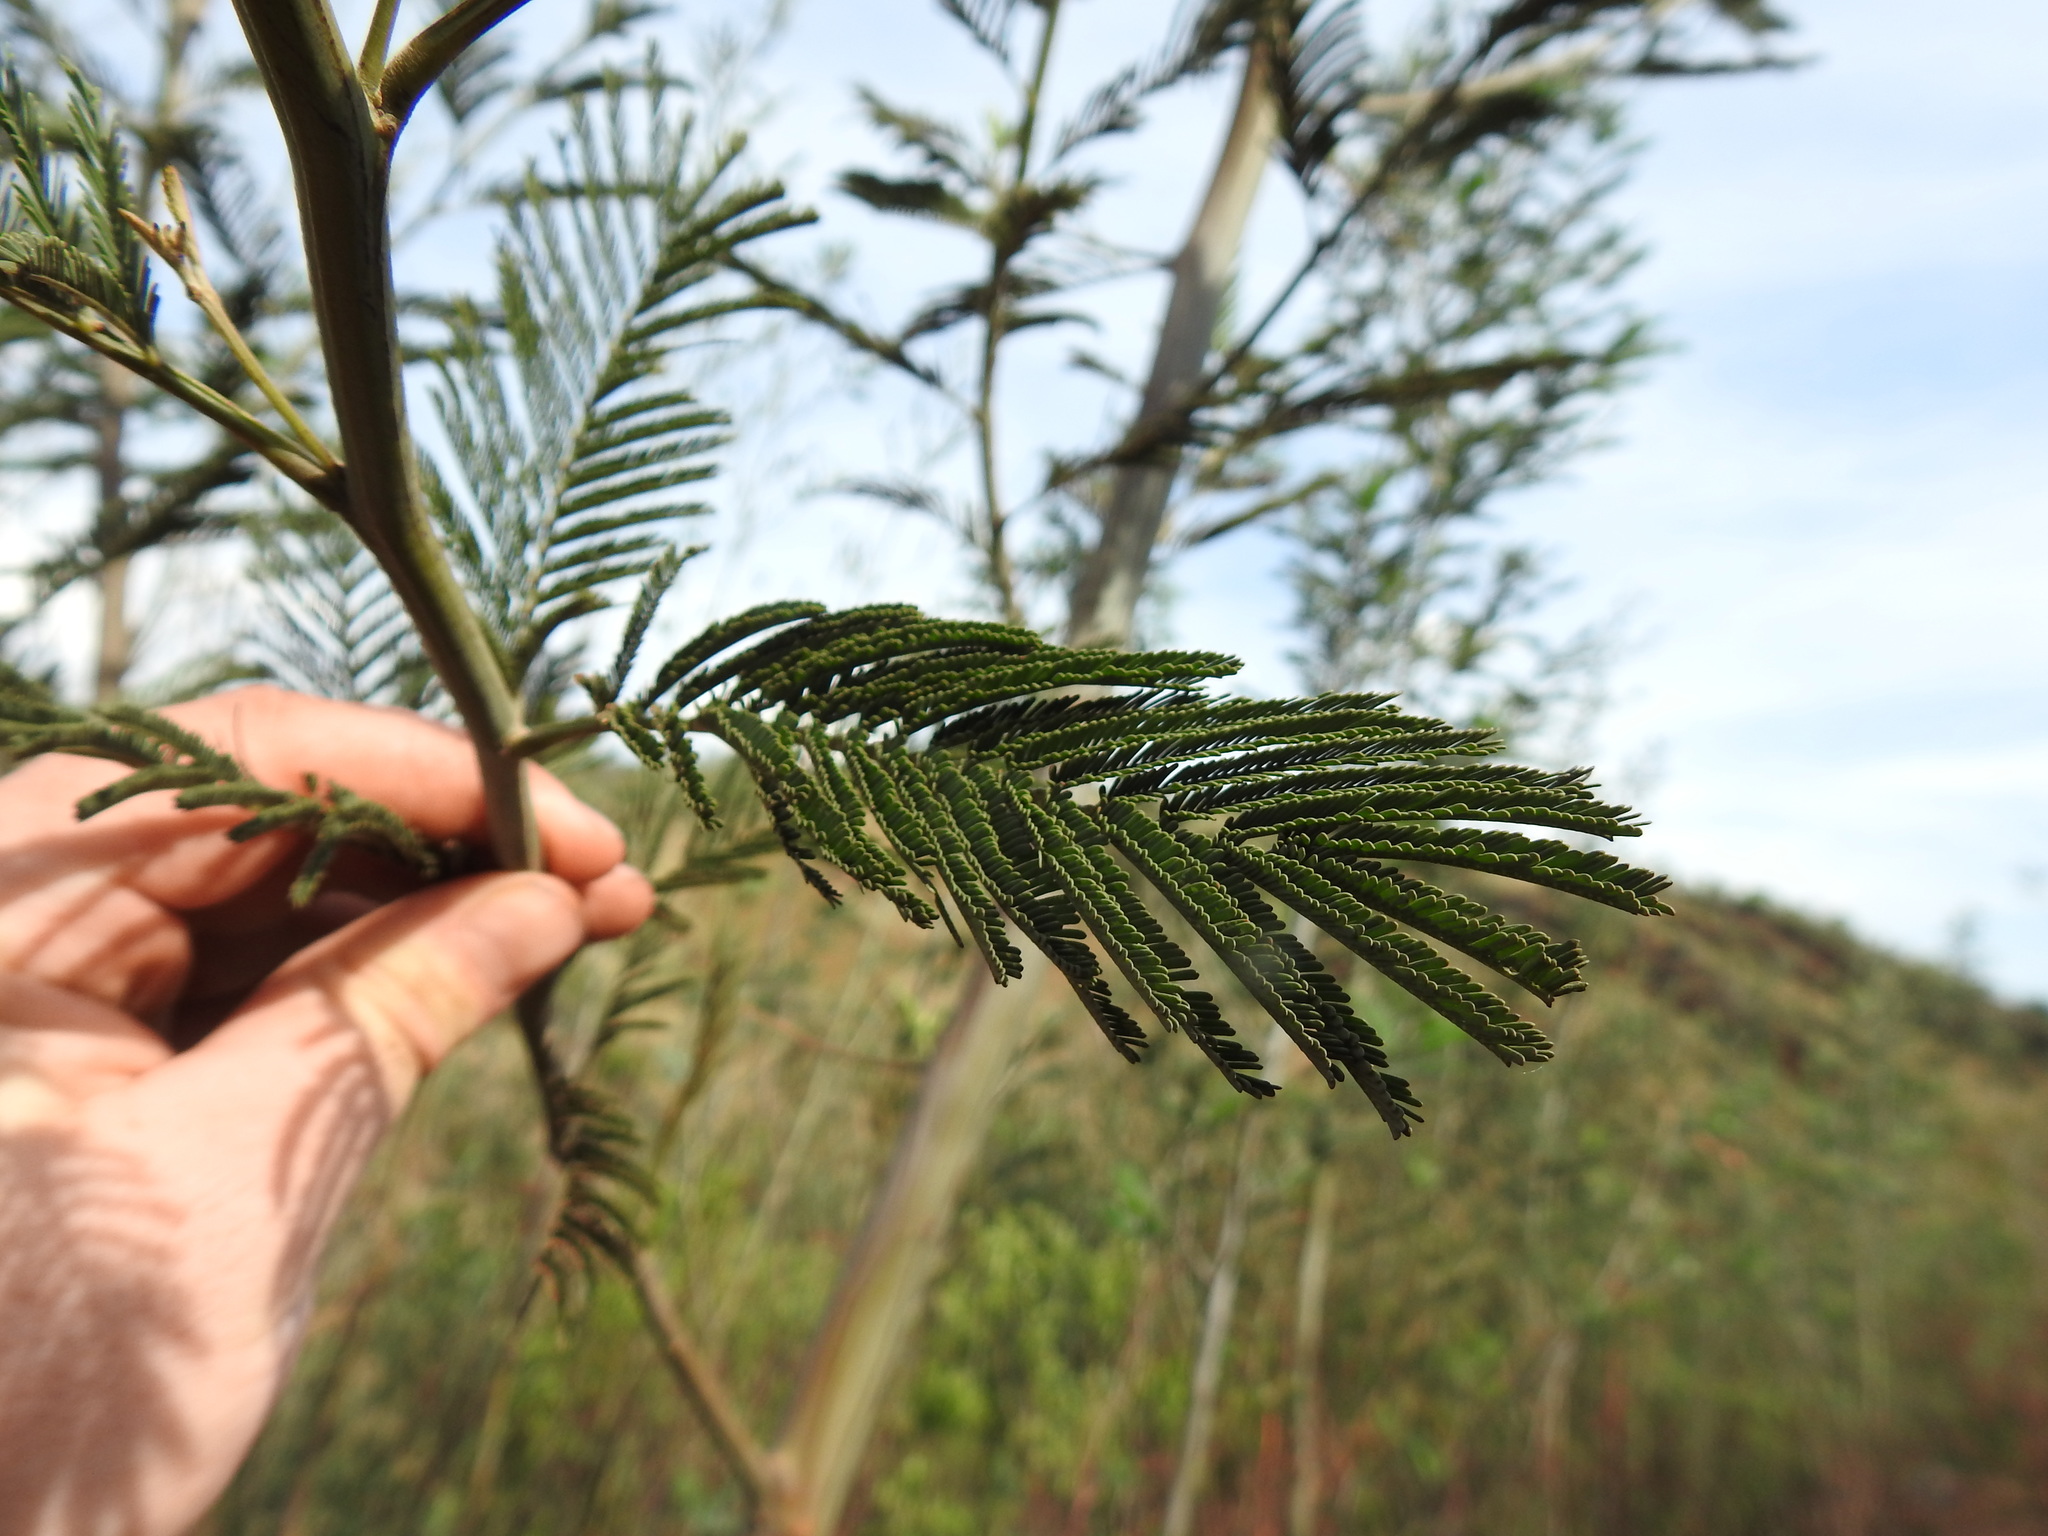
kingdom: Plantae
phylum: Tracheophyta
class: Magnoliopsida
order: Fabales
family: Fabaceae
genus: Acacia
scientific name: Acacia dealbata
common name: Silver wattle
